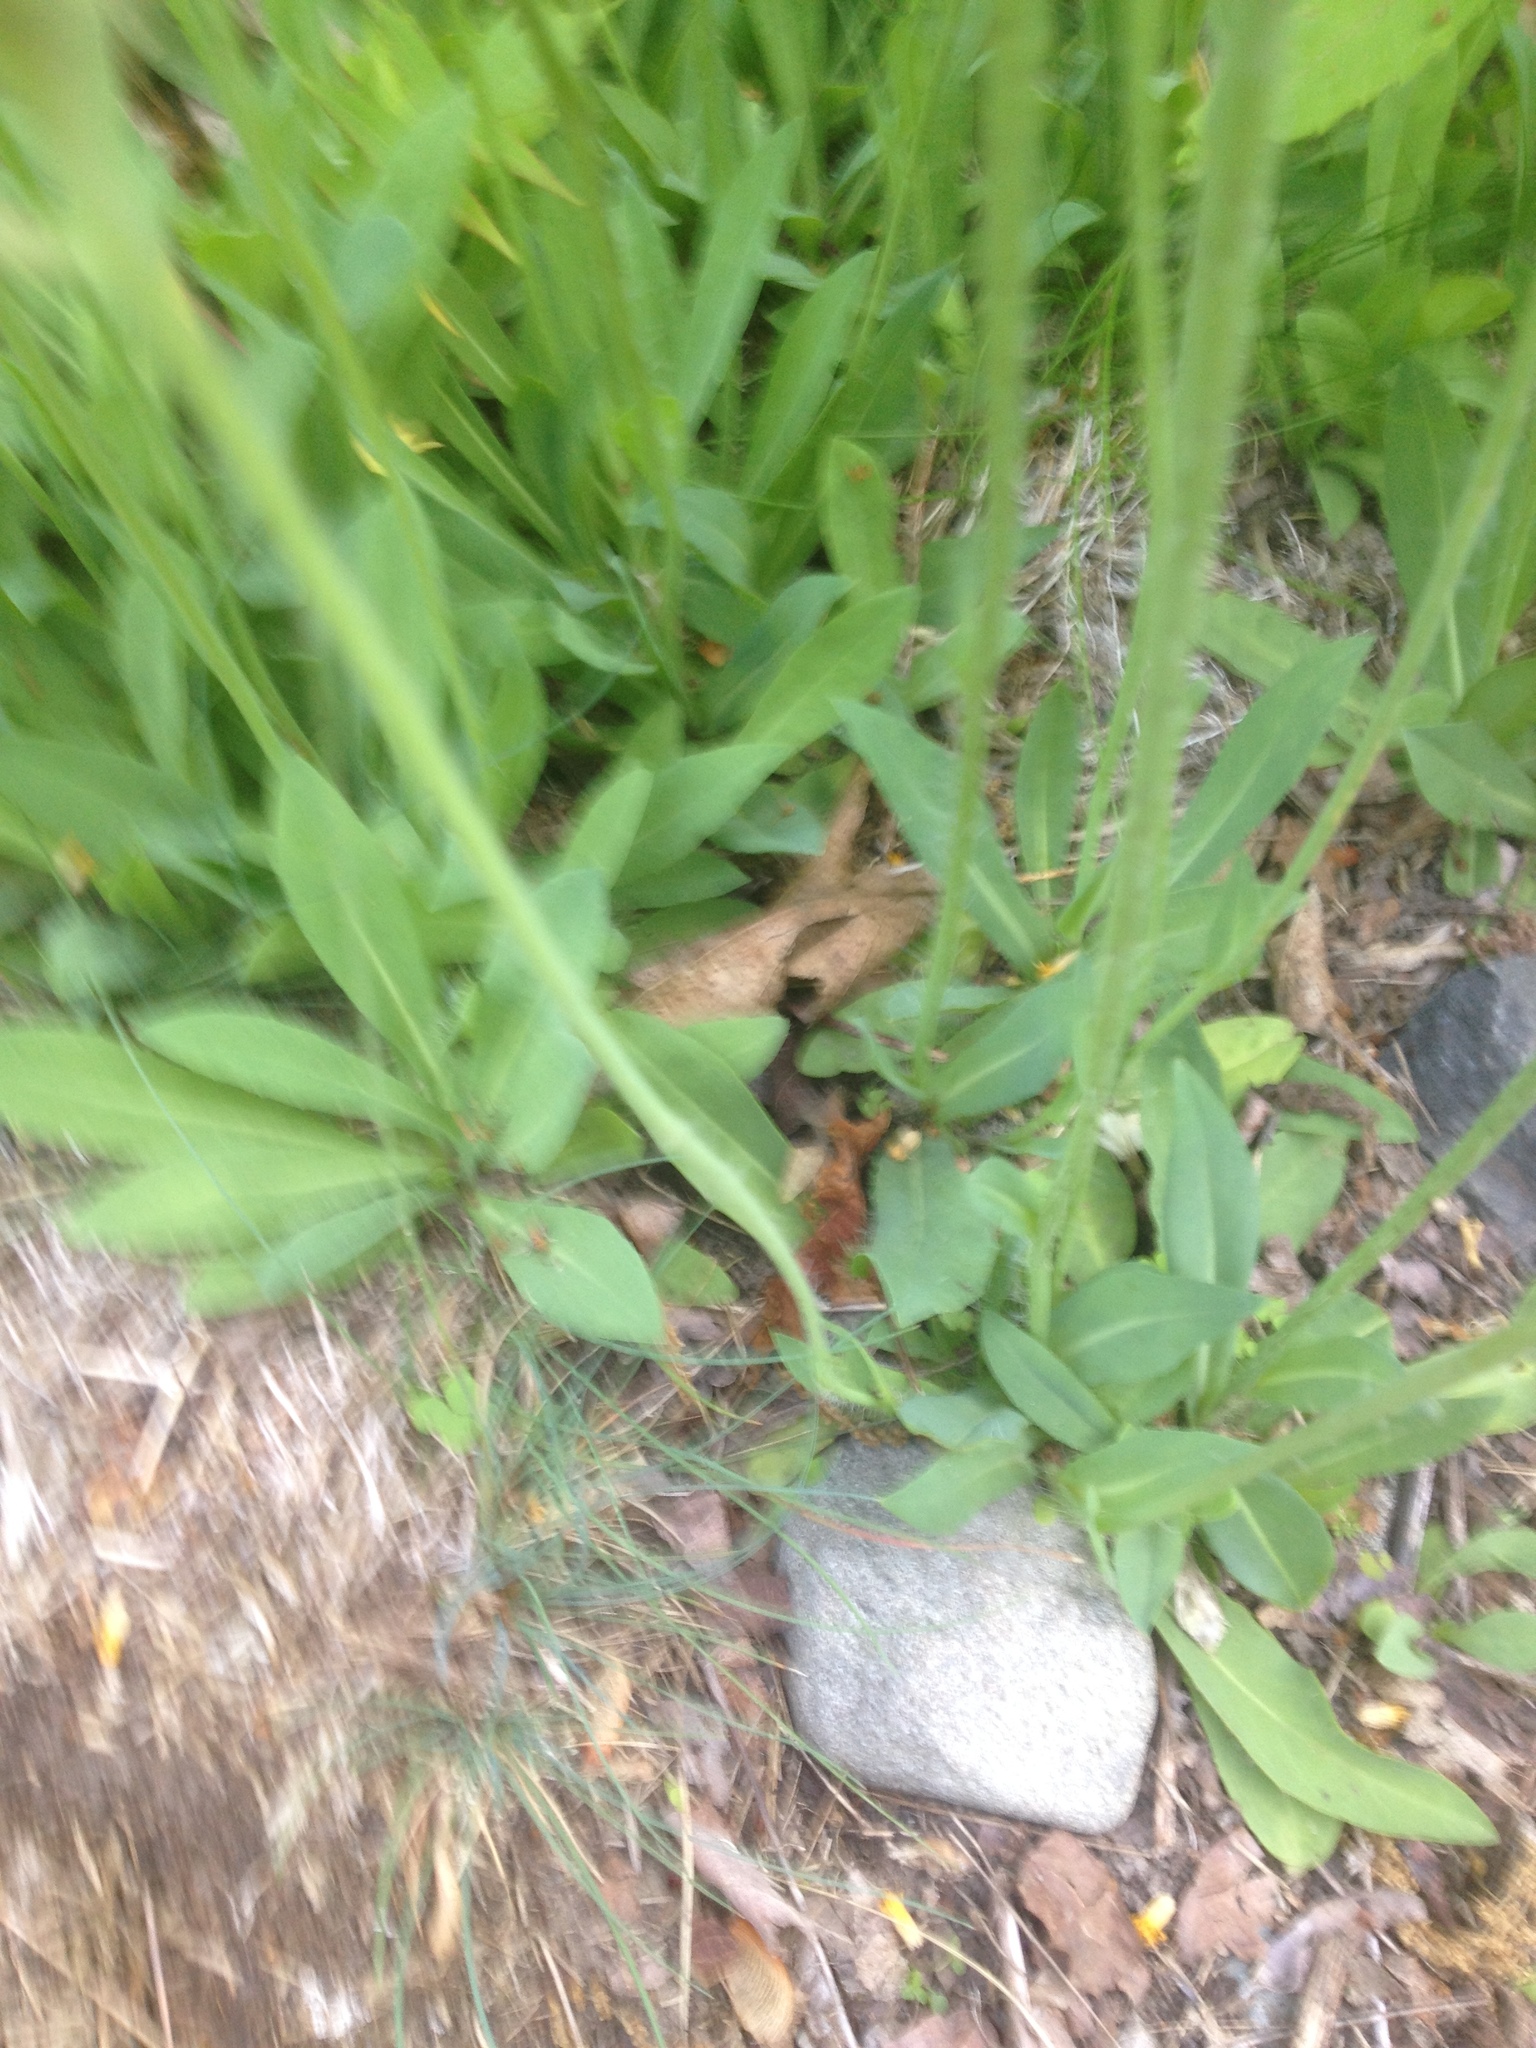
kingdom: Plantae
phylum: Tracheophyta
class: Magnoliopsida
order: Asterales
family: Asteraceae
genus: Pilosella
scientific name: Pilosella caespitosa
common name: Yellow fox-and-cubs
